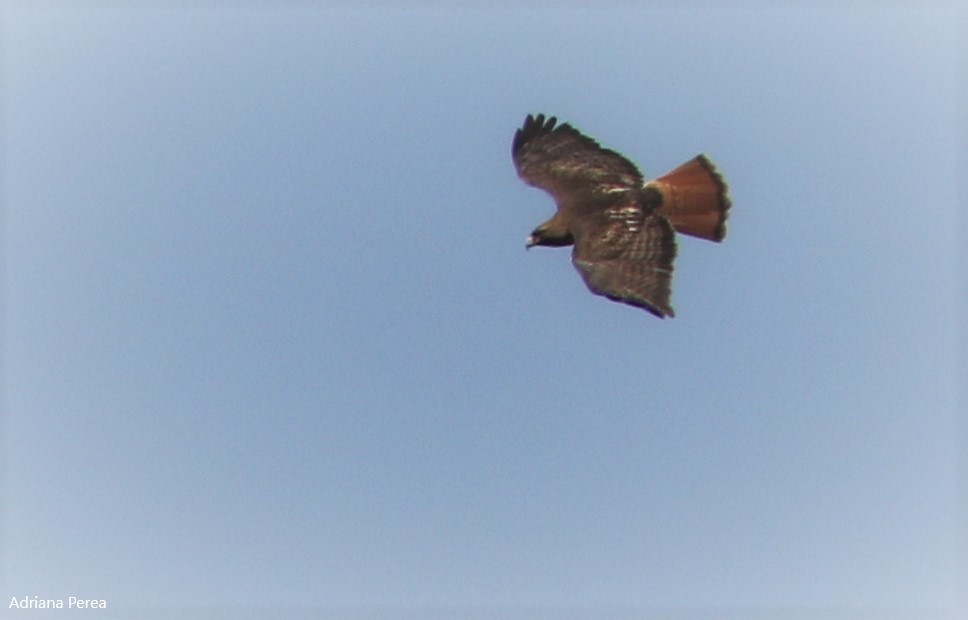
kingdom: Animalia
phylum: Chordata
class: Aves
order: Accipitriformes
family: Accipitridae
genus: Buteo
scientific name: Buteo jamaicensis
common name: Red-tailed hawk
